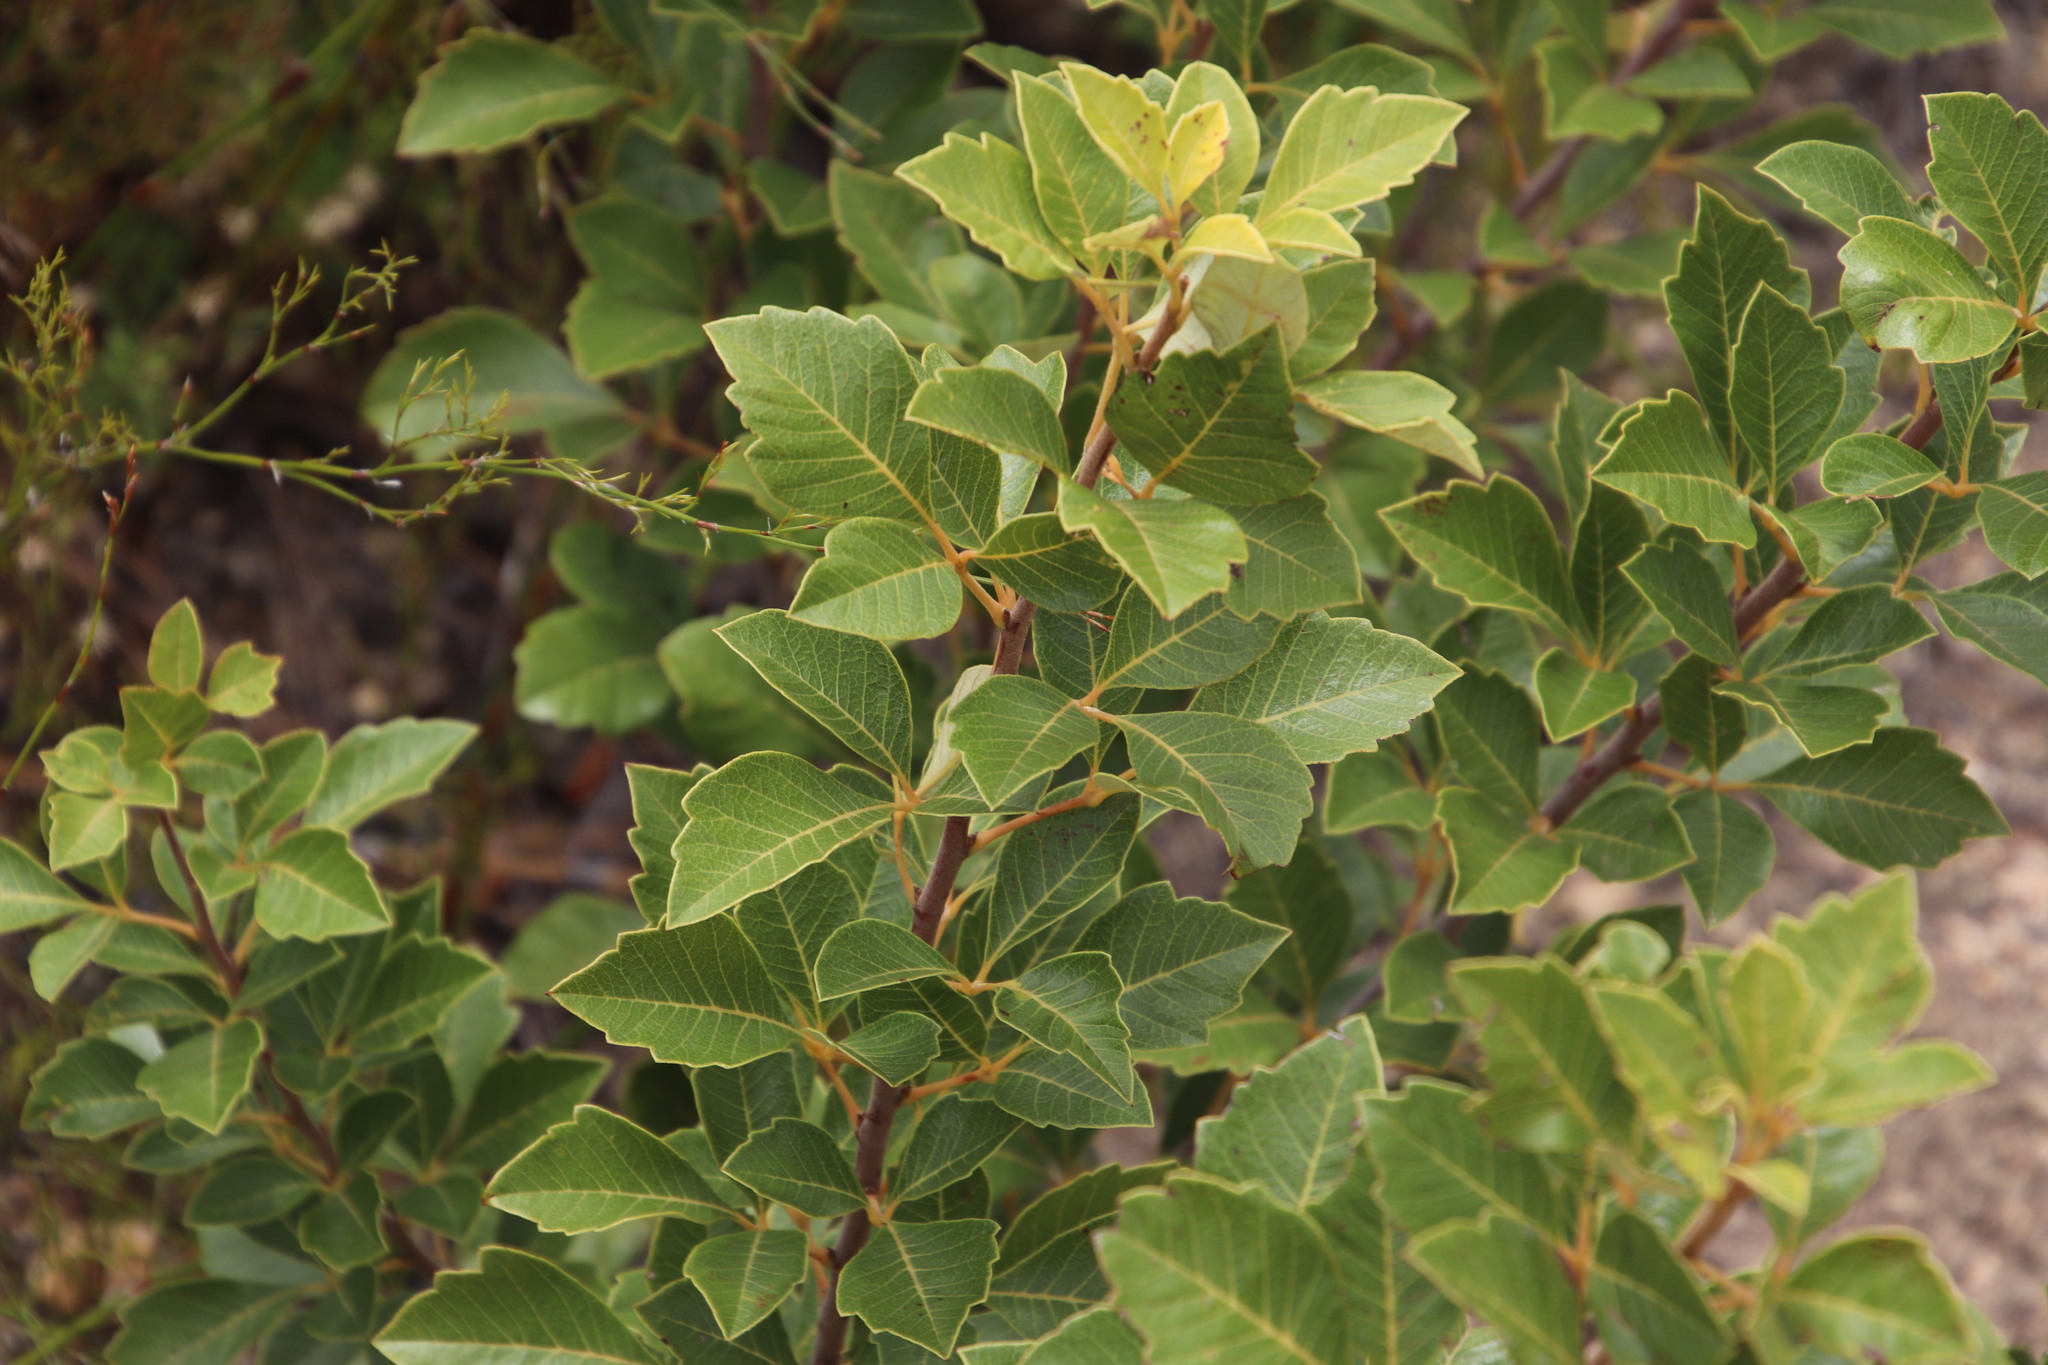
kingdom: Plantae
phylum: Tracheophyta
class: Magnoliopsida
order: Sapindales
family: Anacardiaceae
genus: Searsia
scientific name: Searsia tomentosa
